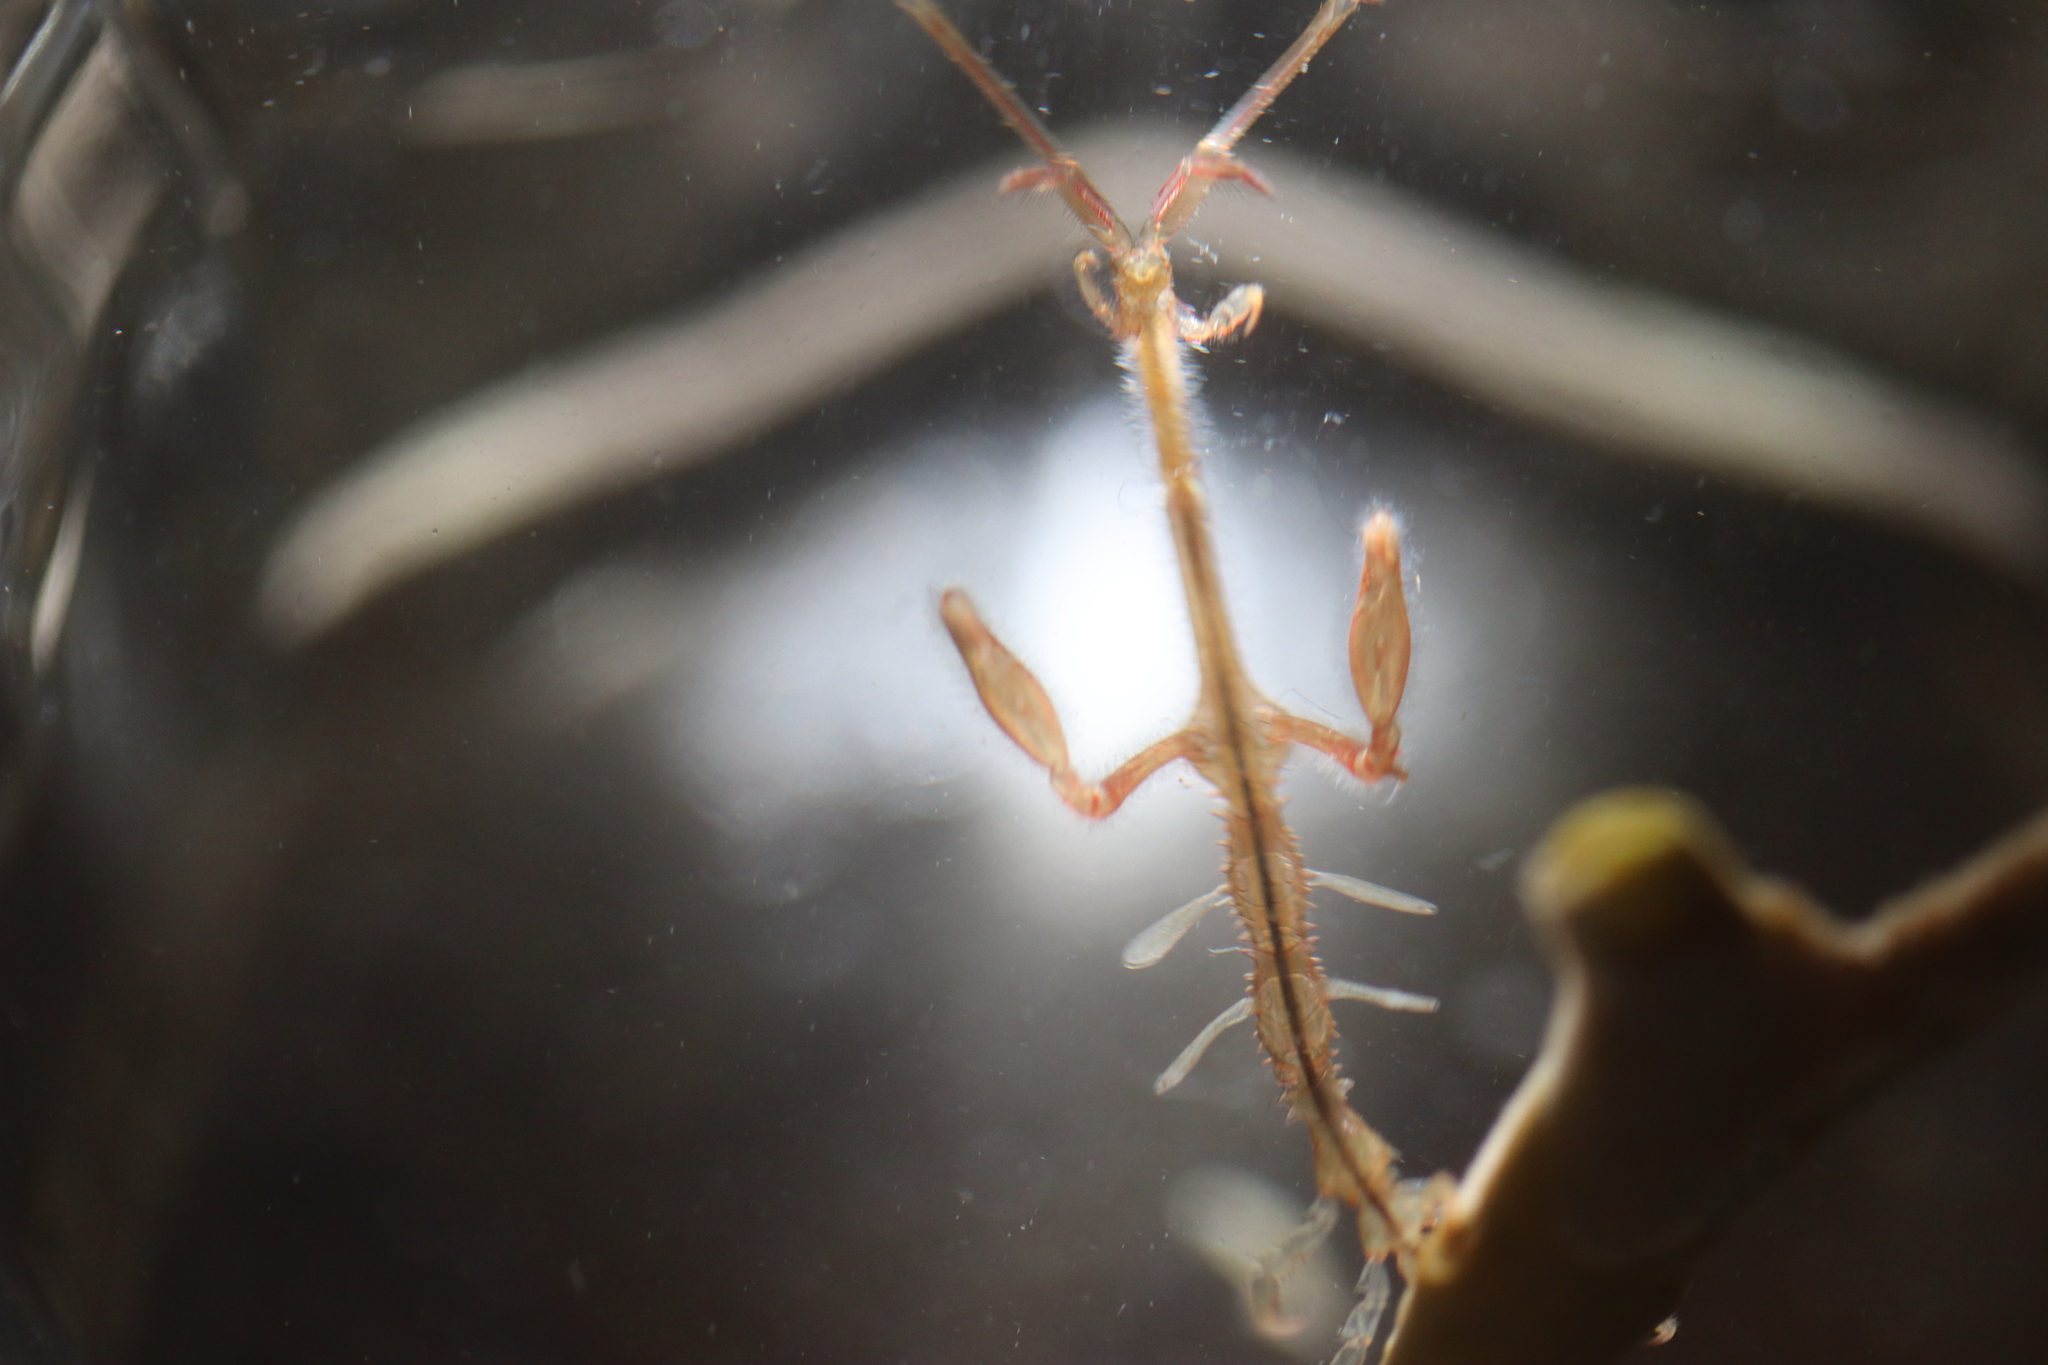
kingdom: Animalia
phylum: Arthropoda
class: Malacostraca
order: Amphipoda
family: Caprellidae
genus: Caprella
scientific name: Caprella mutica
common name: Japanese skeleton shrimp
